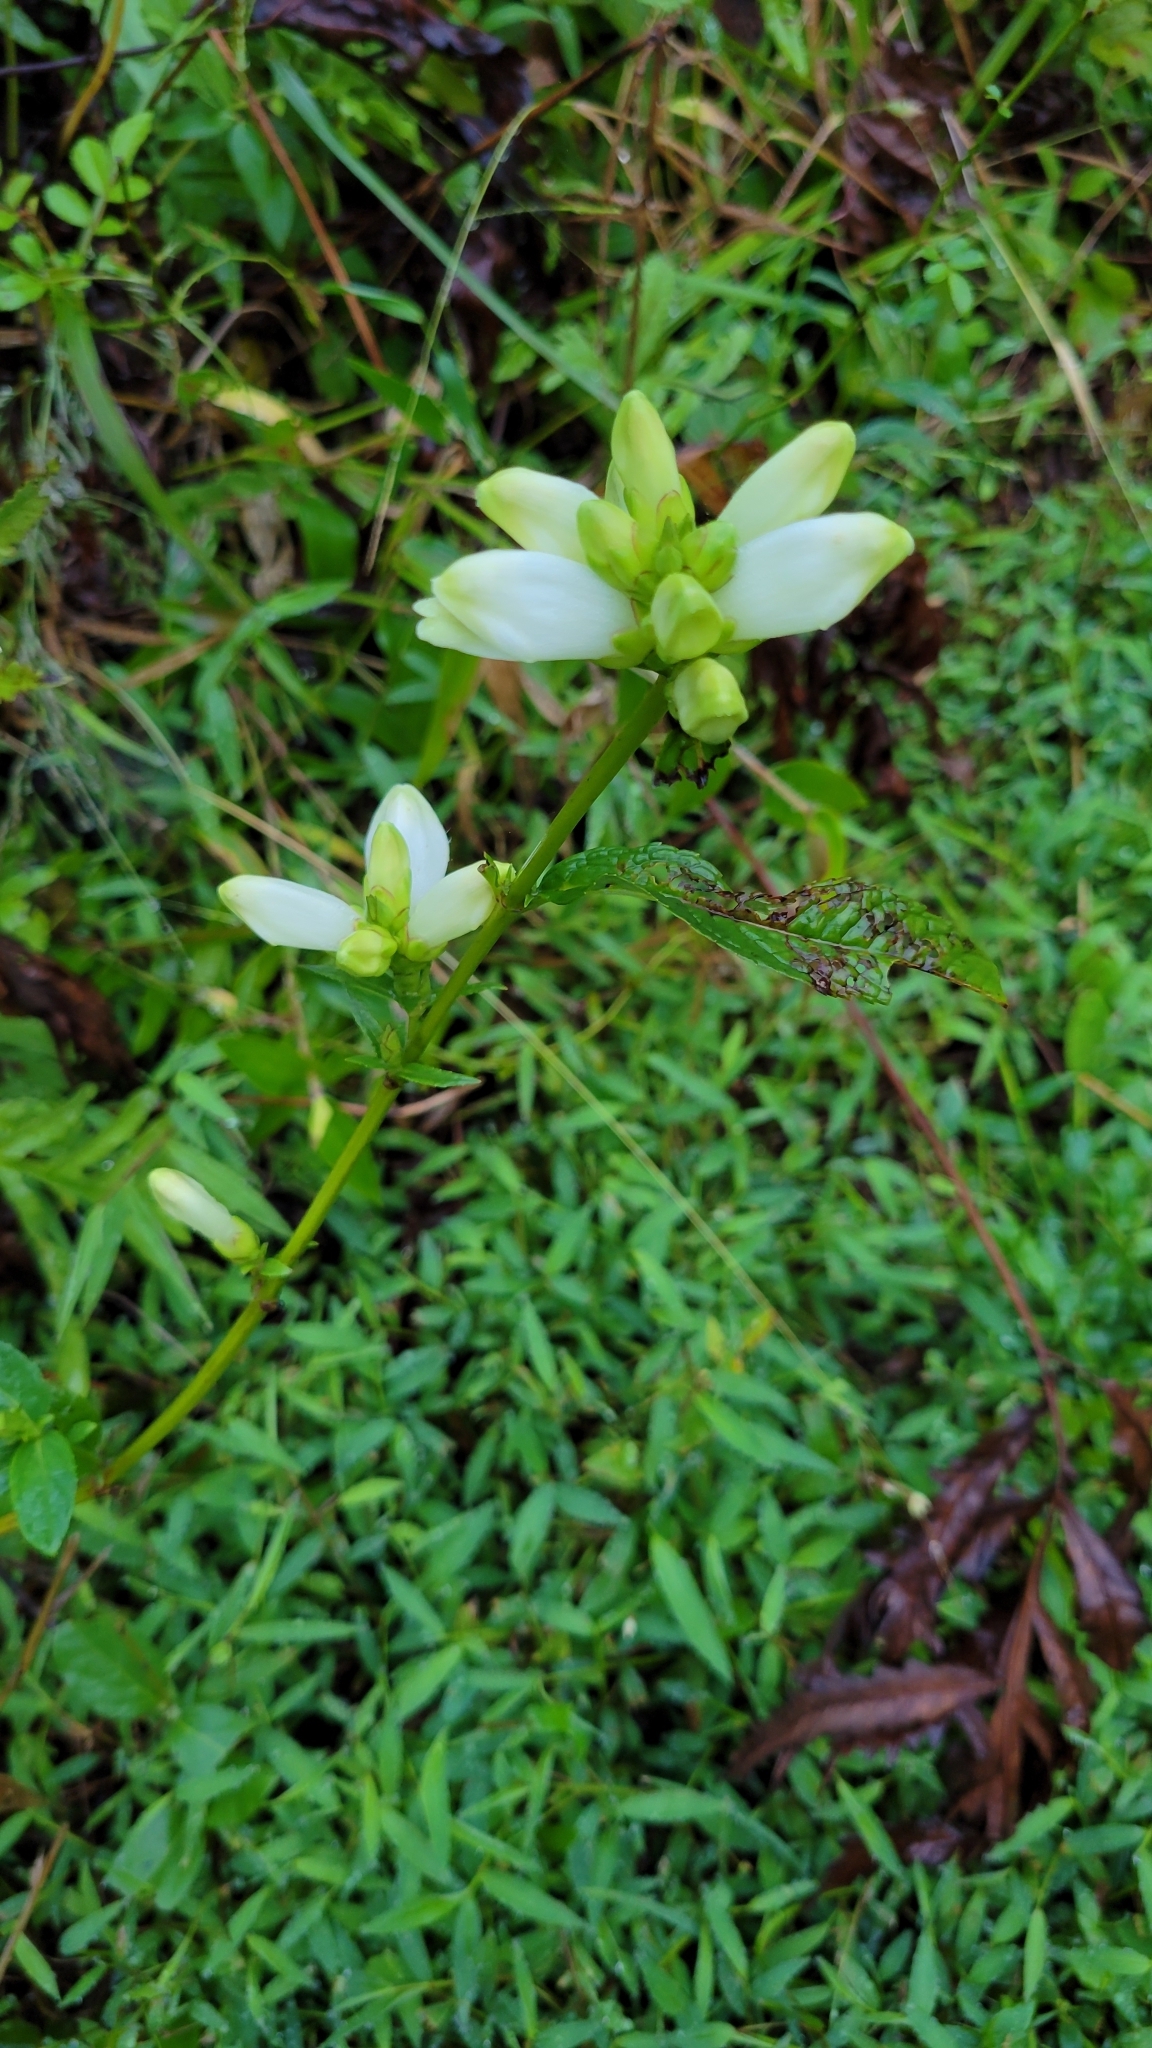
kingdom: Plantae
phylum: Tracheophyta
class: Magnoliopsida
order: Lamiales
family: Plantaginaceae
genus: Chelone
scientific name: Chelone glabra
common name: Snakehead
